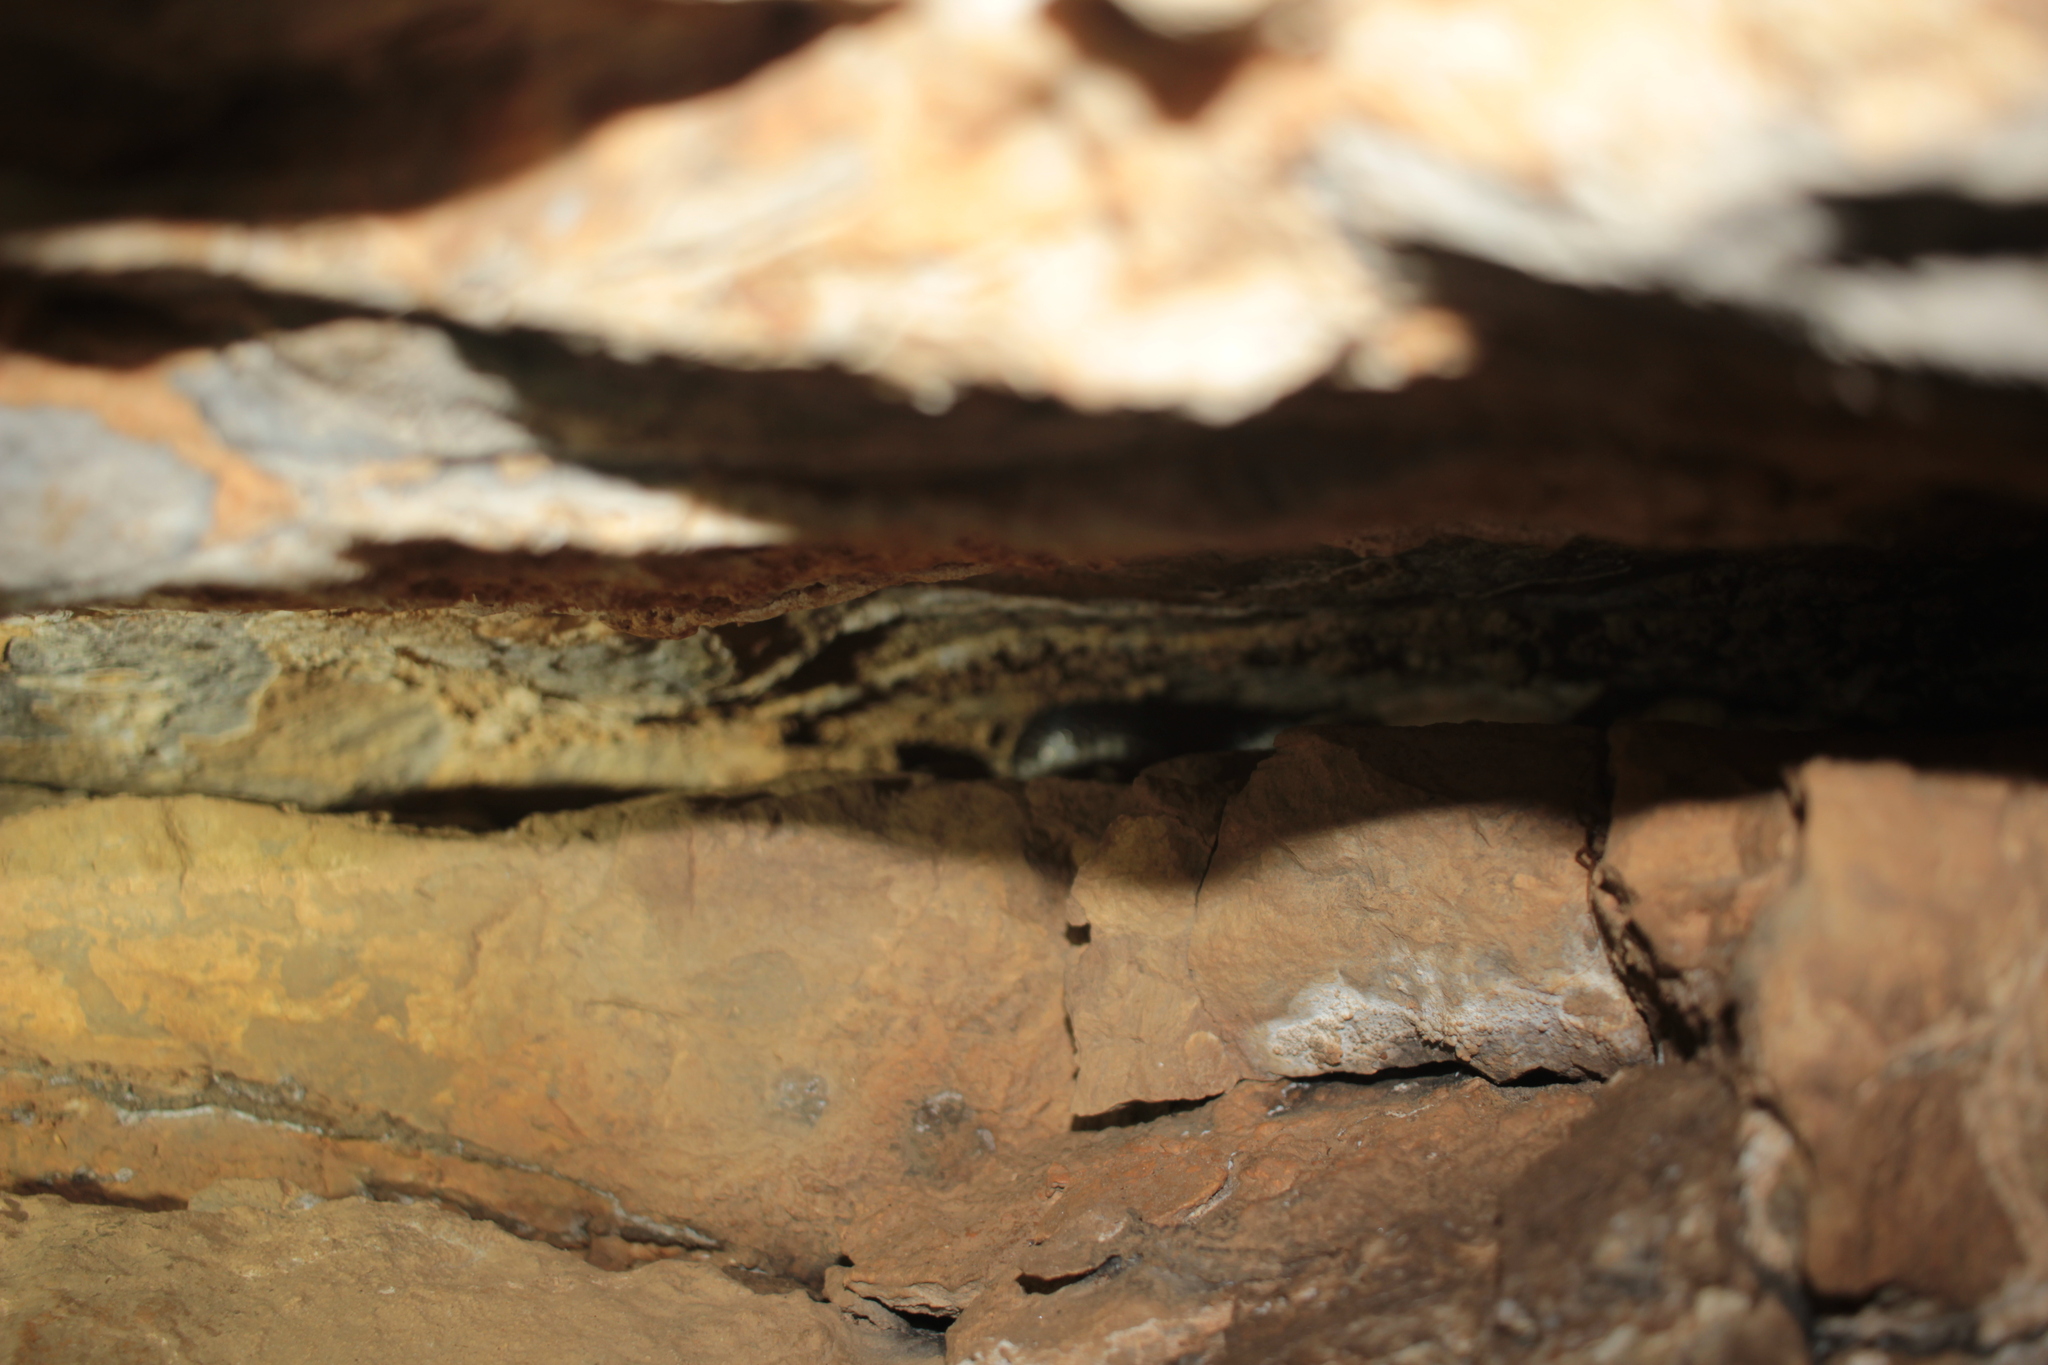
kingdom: Animalia
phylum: Chordata
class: Squamata
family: Colubridae
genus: Pantherophis
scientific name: Pantherophis spiloides
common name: Gray rat snake
